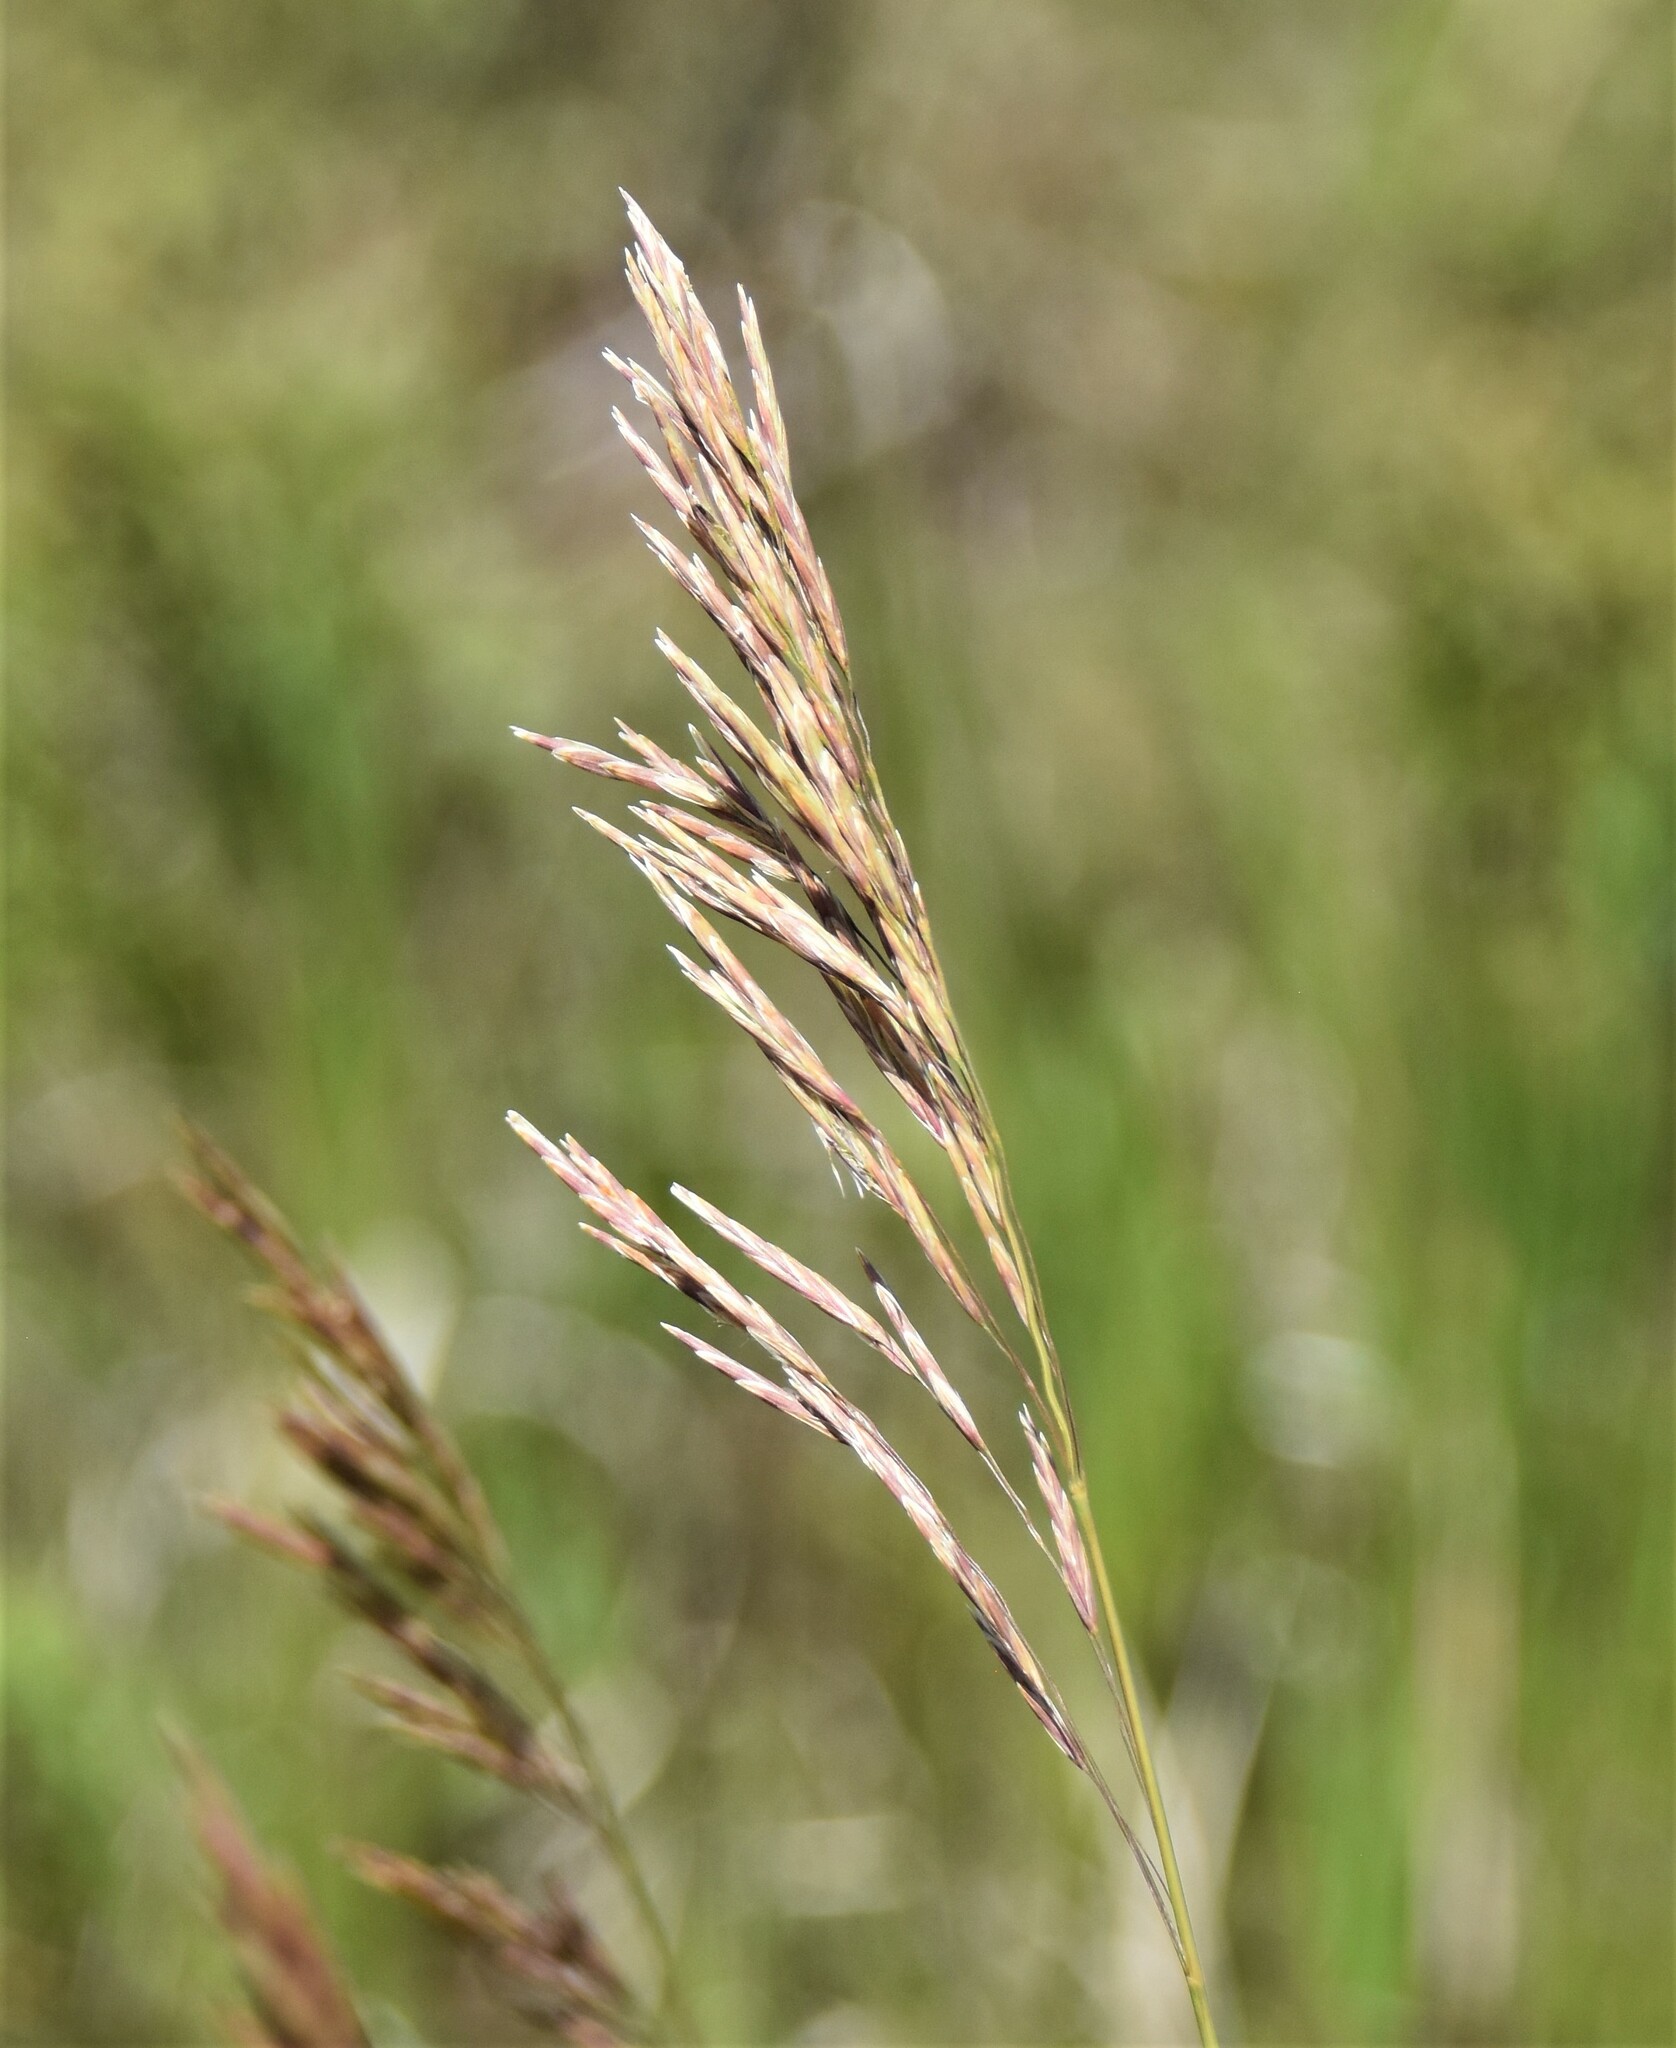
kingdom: Plantae
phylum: Tracheophyta
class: Liliopsida
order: Poales
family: Poaceae
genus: Bromus
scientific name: Bromus inermis
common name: Smooth brome
